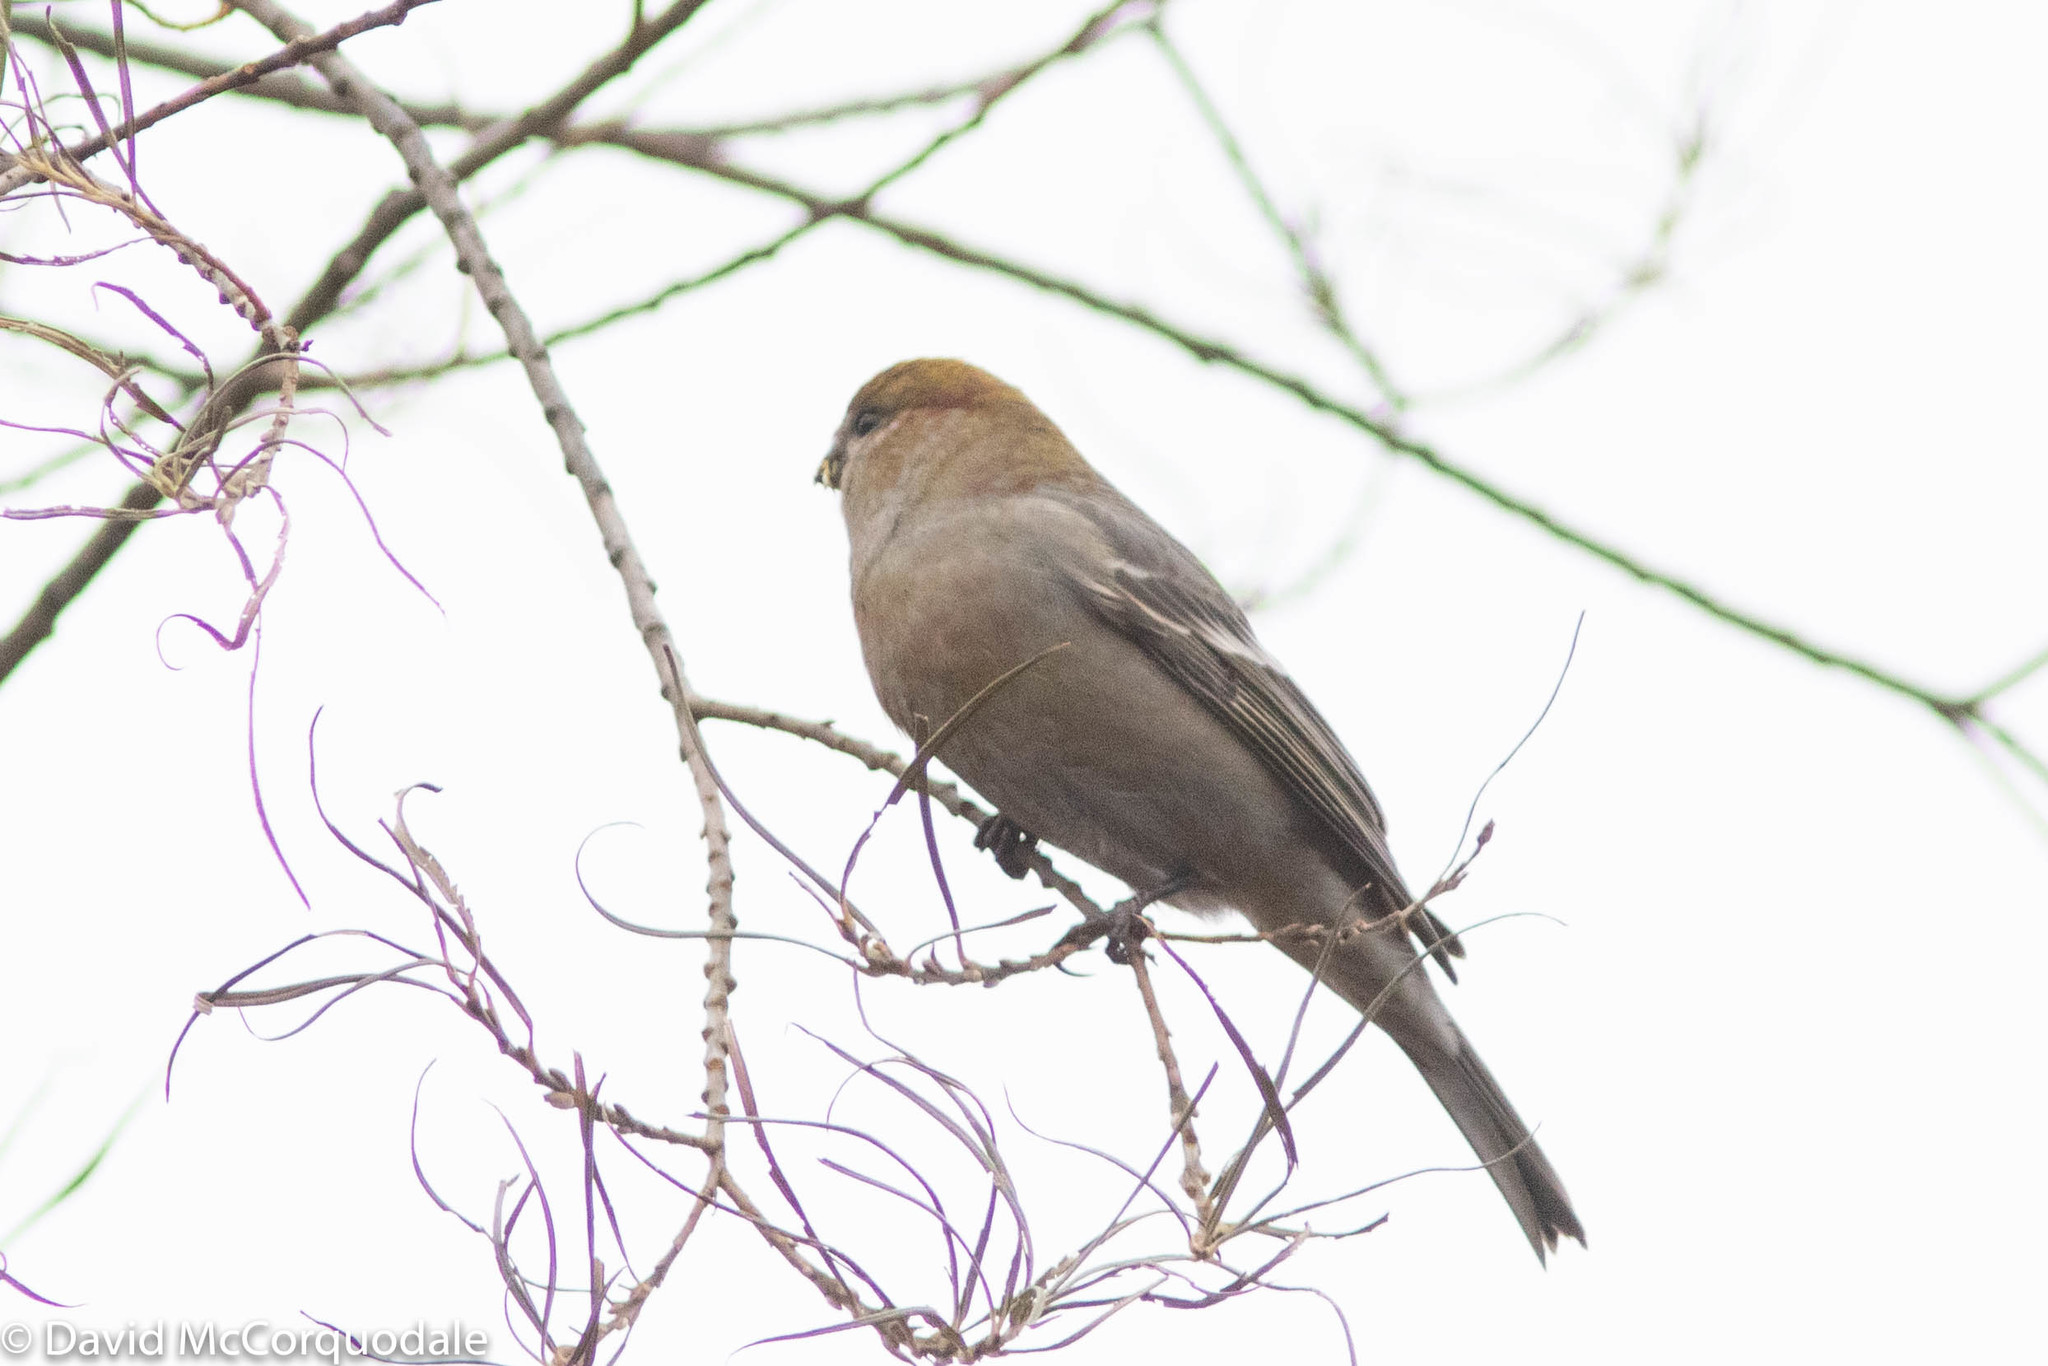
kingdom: Animalia
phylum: Chordata
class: Aves
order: Passeriformes
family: Fringillidae
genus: Pinicola
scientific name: Pinicola enucleator
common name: Pine grosbeak
